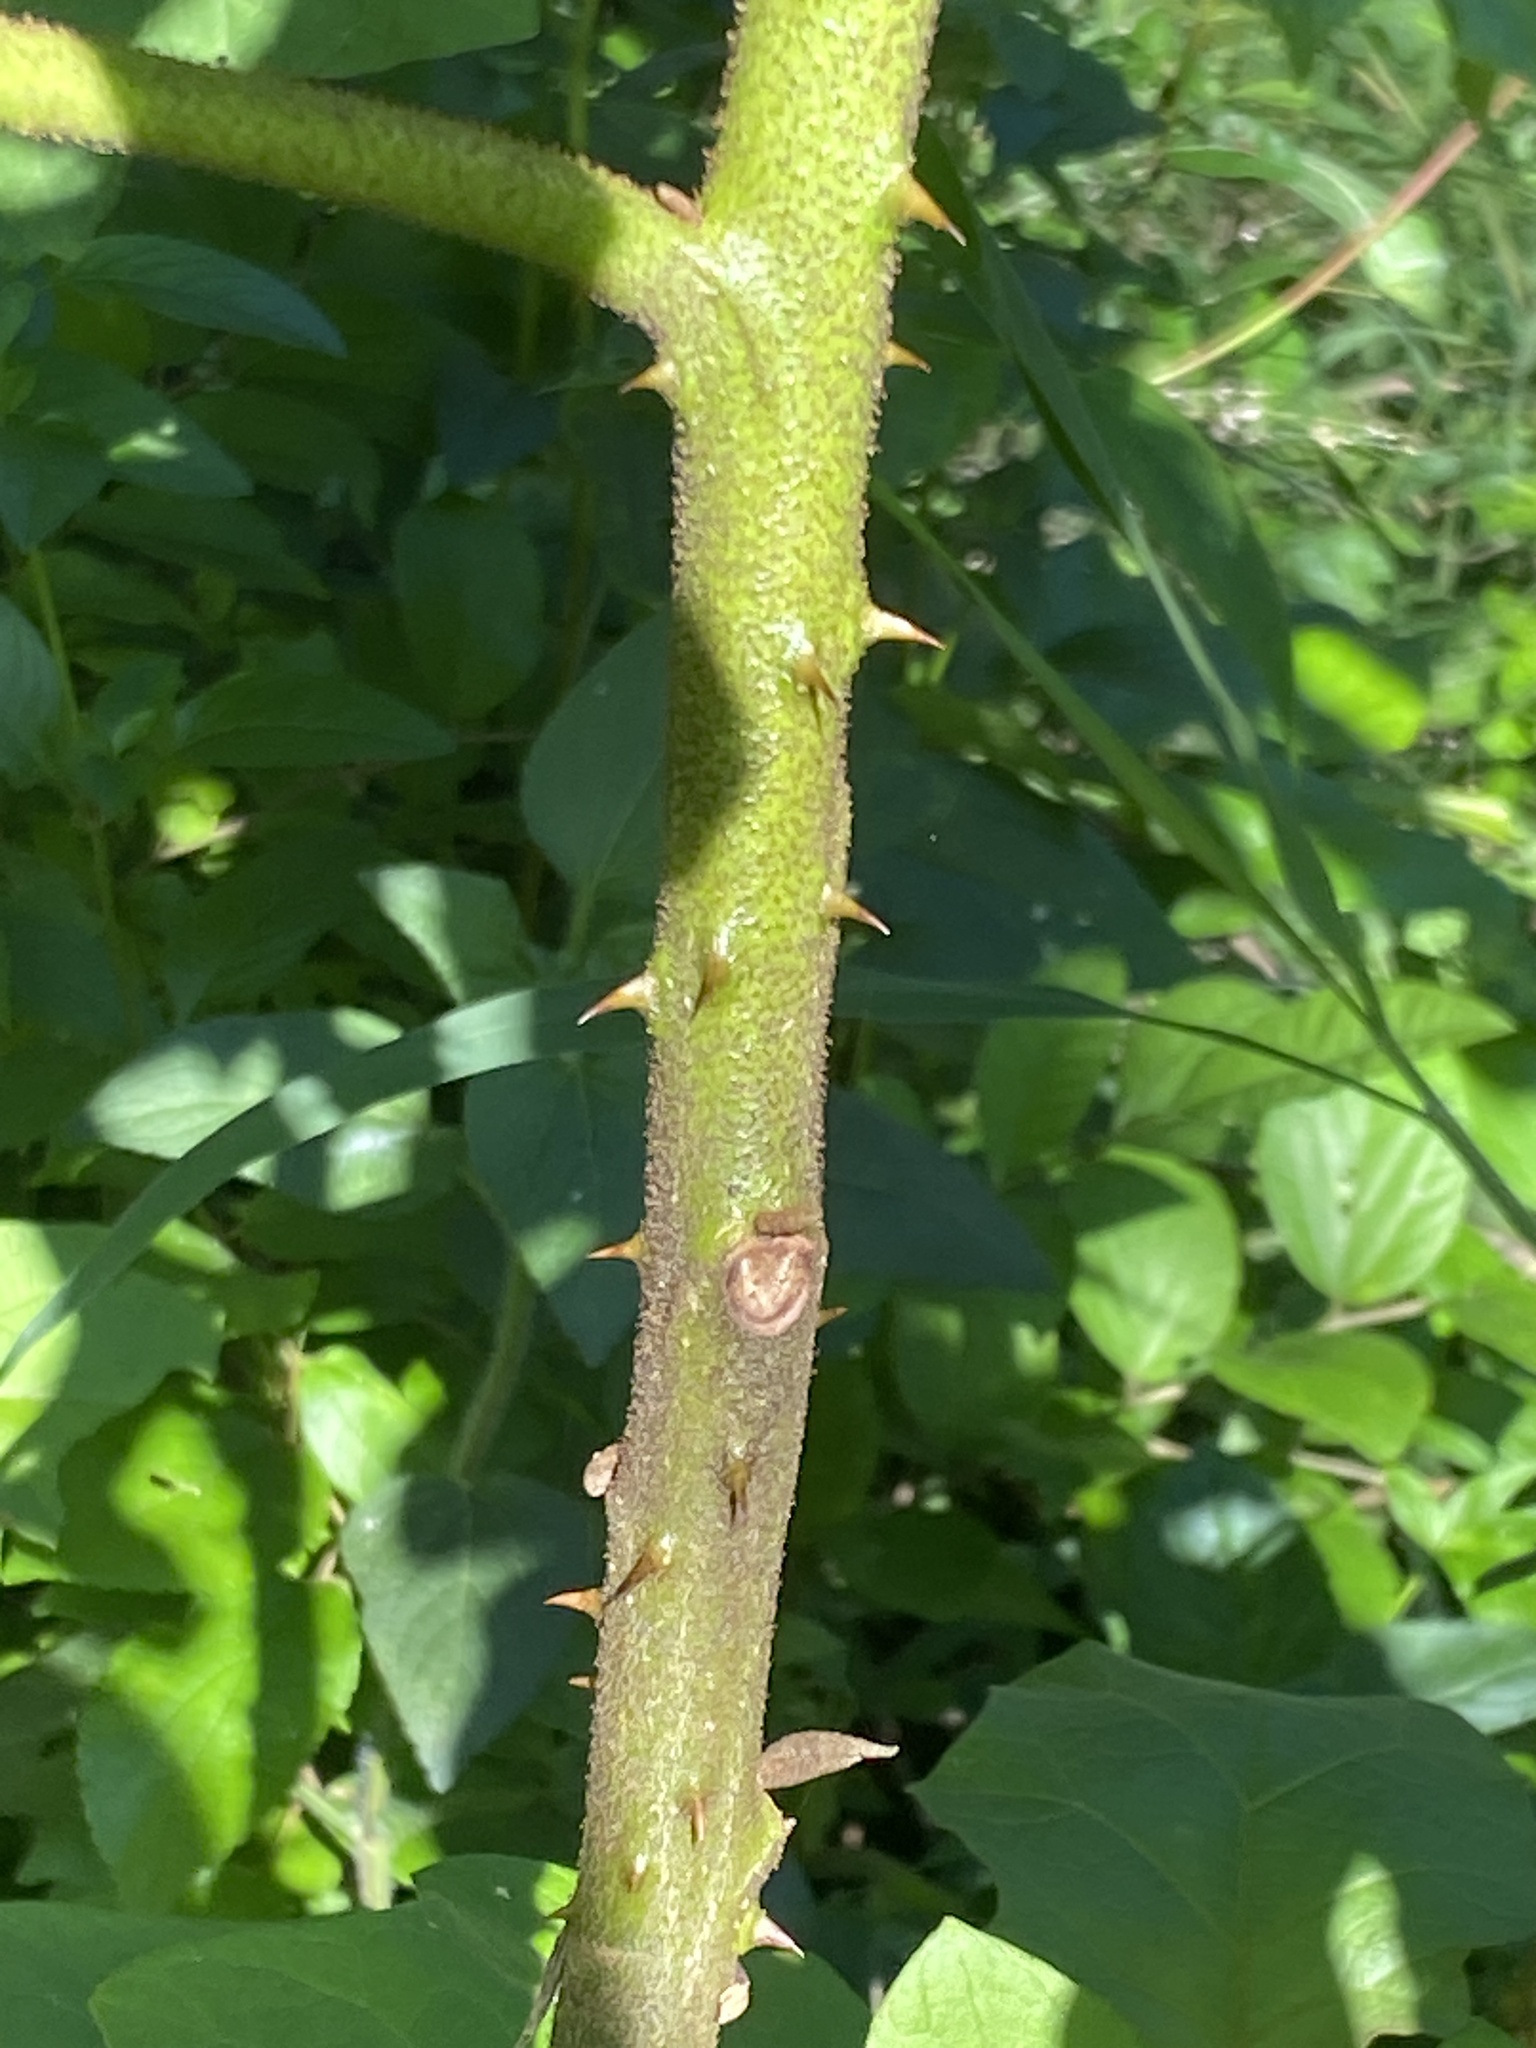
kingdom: Plantae
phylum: Tracheophyta
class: Magnoliopsida
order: Solanales
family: Solanaceae
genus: Solanum
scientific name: Solanum chrysotrichum
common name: Nightshade
